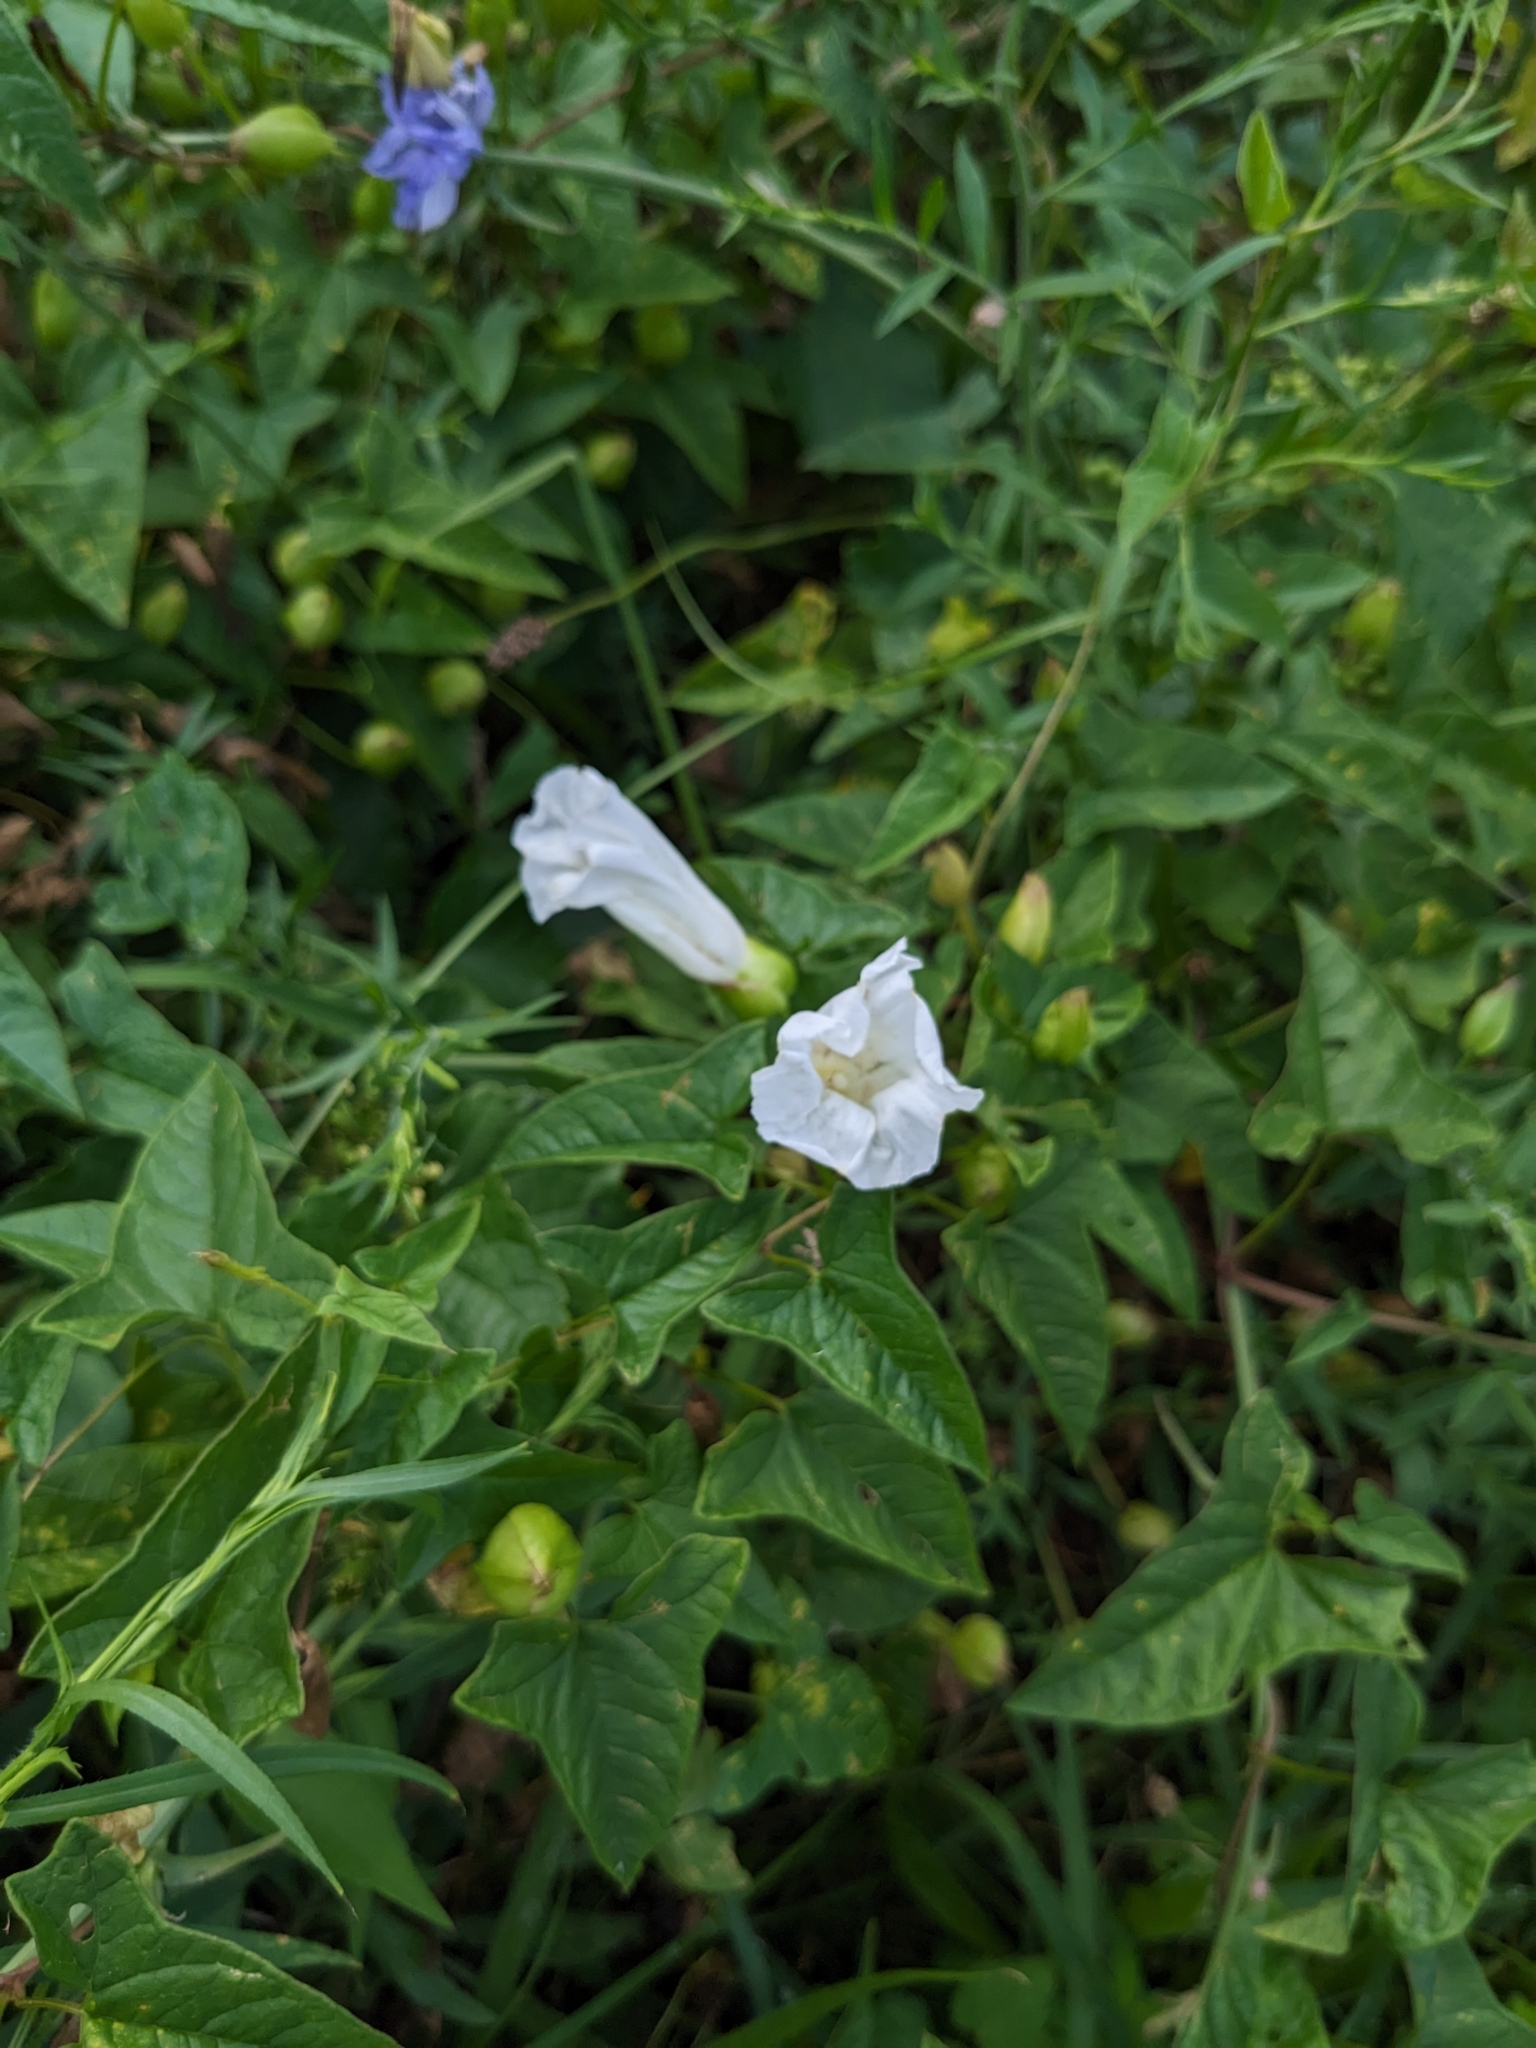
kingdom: Plantae
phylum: Tracheophyta
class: Magnoliopsida
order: Solanales
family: Convolvulaceae
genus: Calystegia
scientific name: Calystegia sepium
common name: Hedge bindweed
